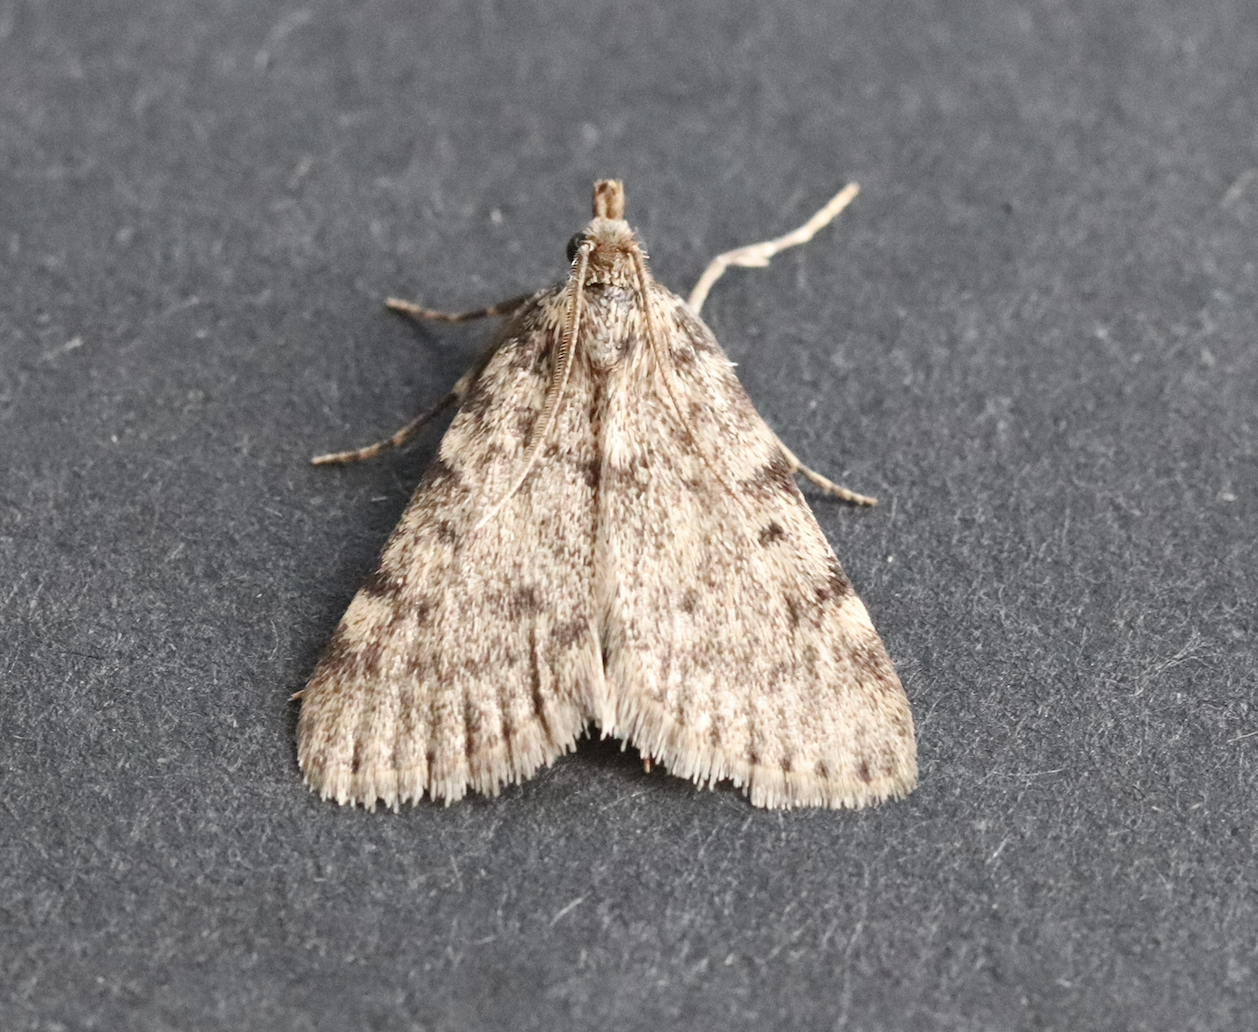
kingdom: Animalia
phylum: Arthropoda
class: Insecta
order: Lepidoptera
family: Pyralidae
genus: Aglossa
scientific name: Aglossa pinguinalis
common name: Large tabby
